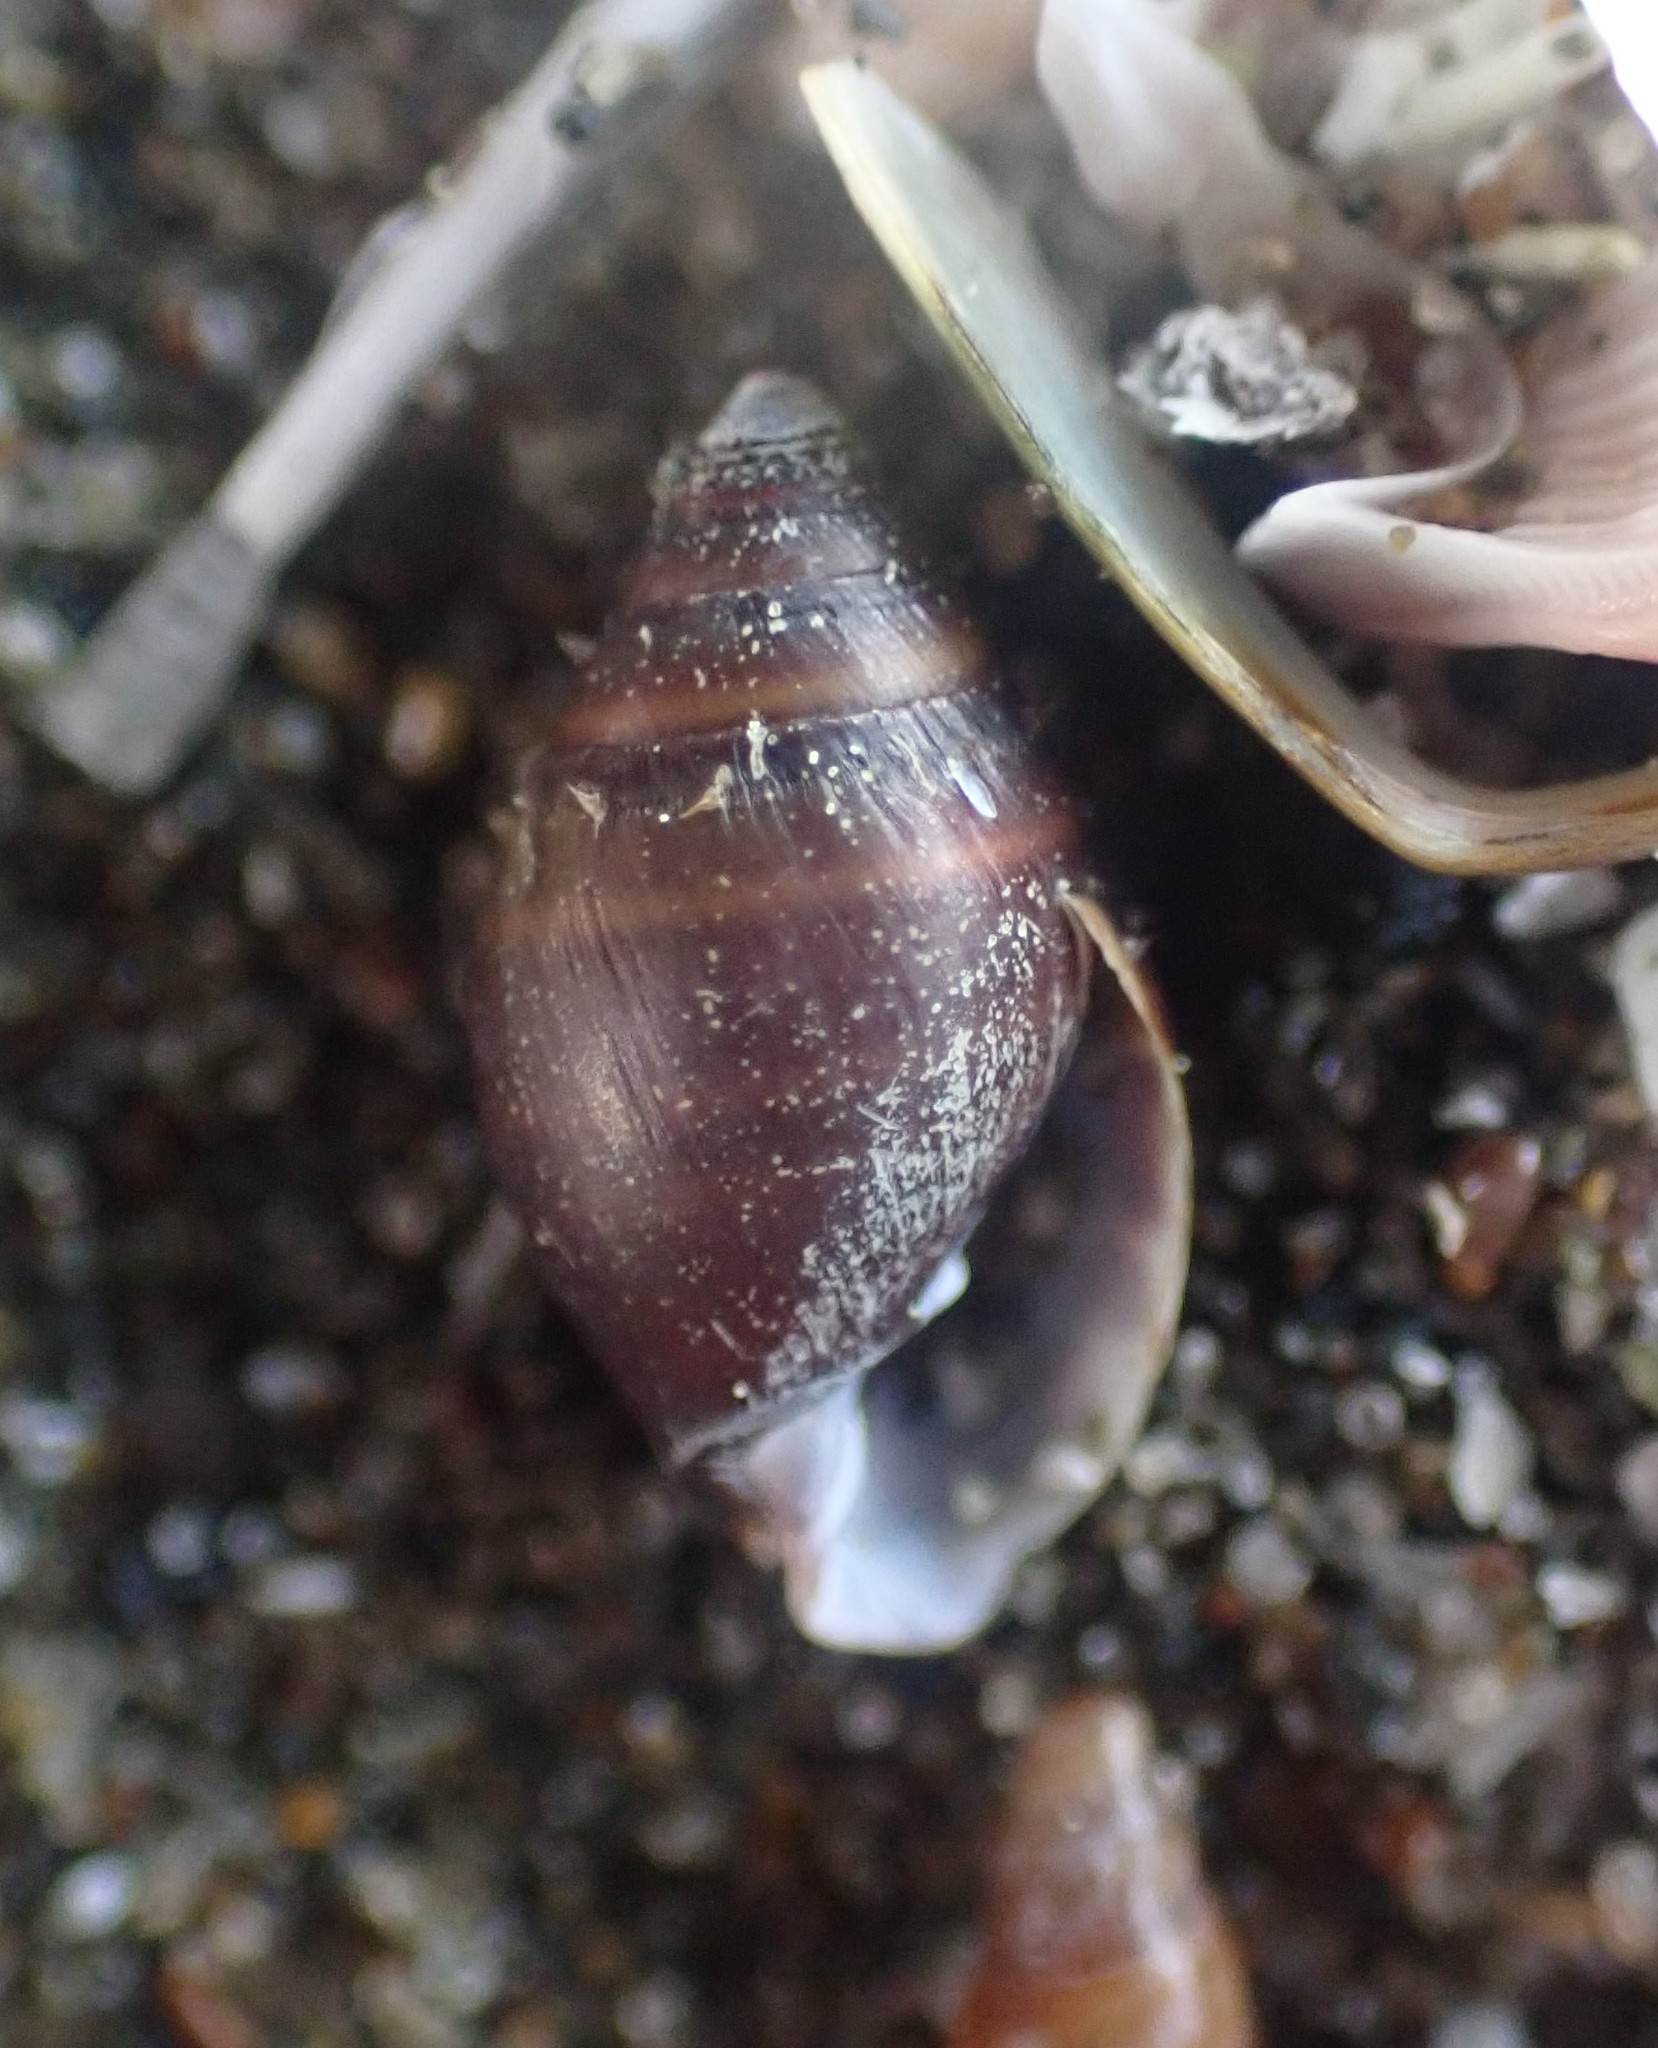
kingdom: Animalia
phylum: Mollusca
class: Gastropoda
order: Ellobiida
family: Ellobiidae
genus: Pleuroloba
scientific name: Pleuroloba costellaris
